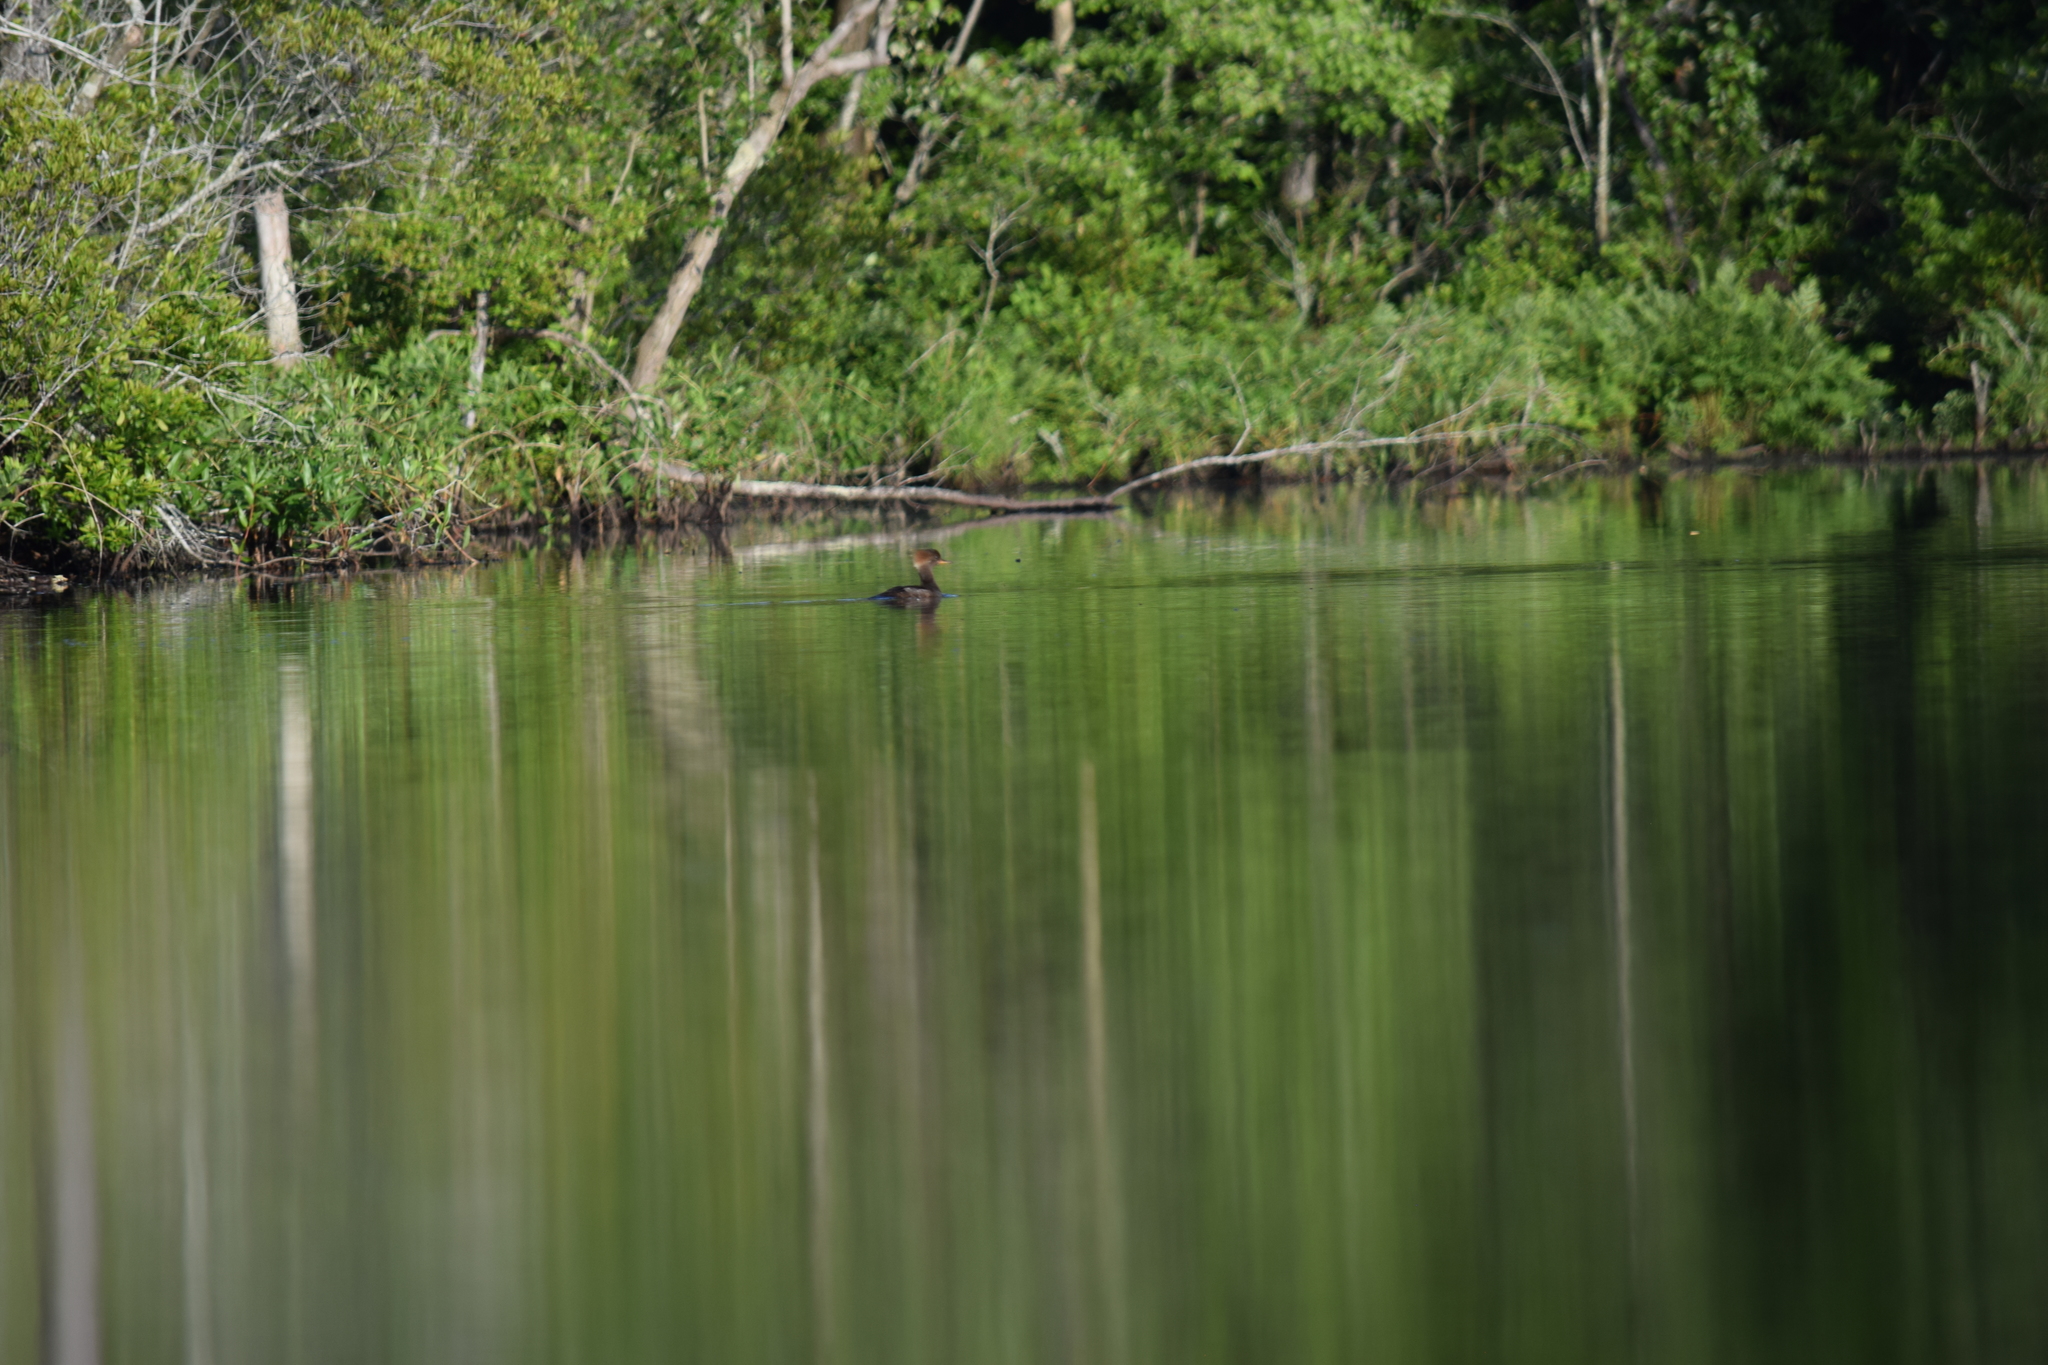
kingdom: Animalia
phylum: Chordata
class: Aves
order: Anseriformes
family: Anatidae
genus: Lophodytes
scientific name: Lophodytes cucullatus
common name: Hooded merganser
